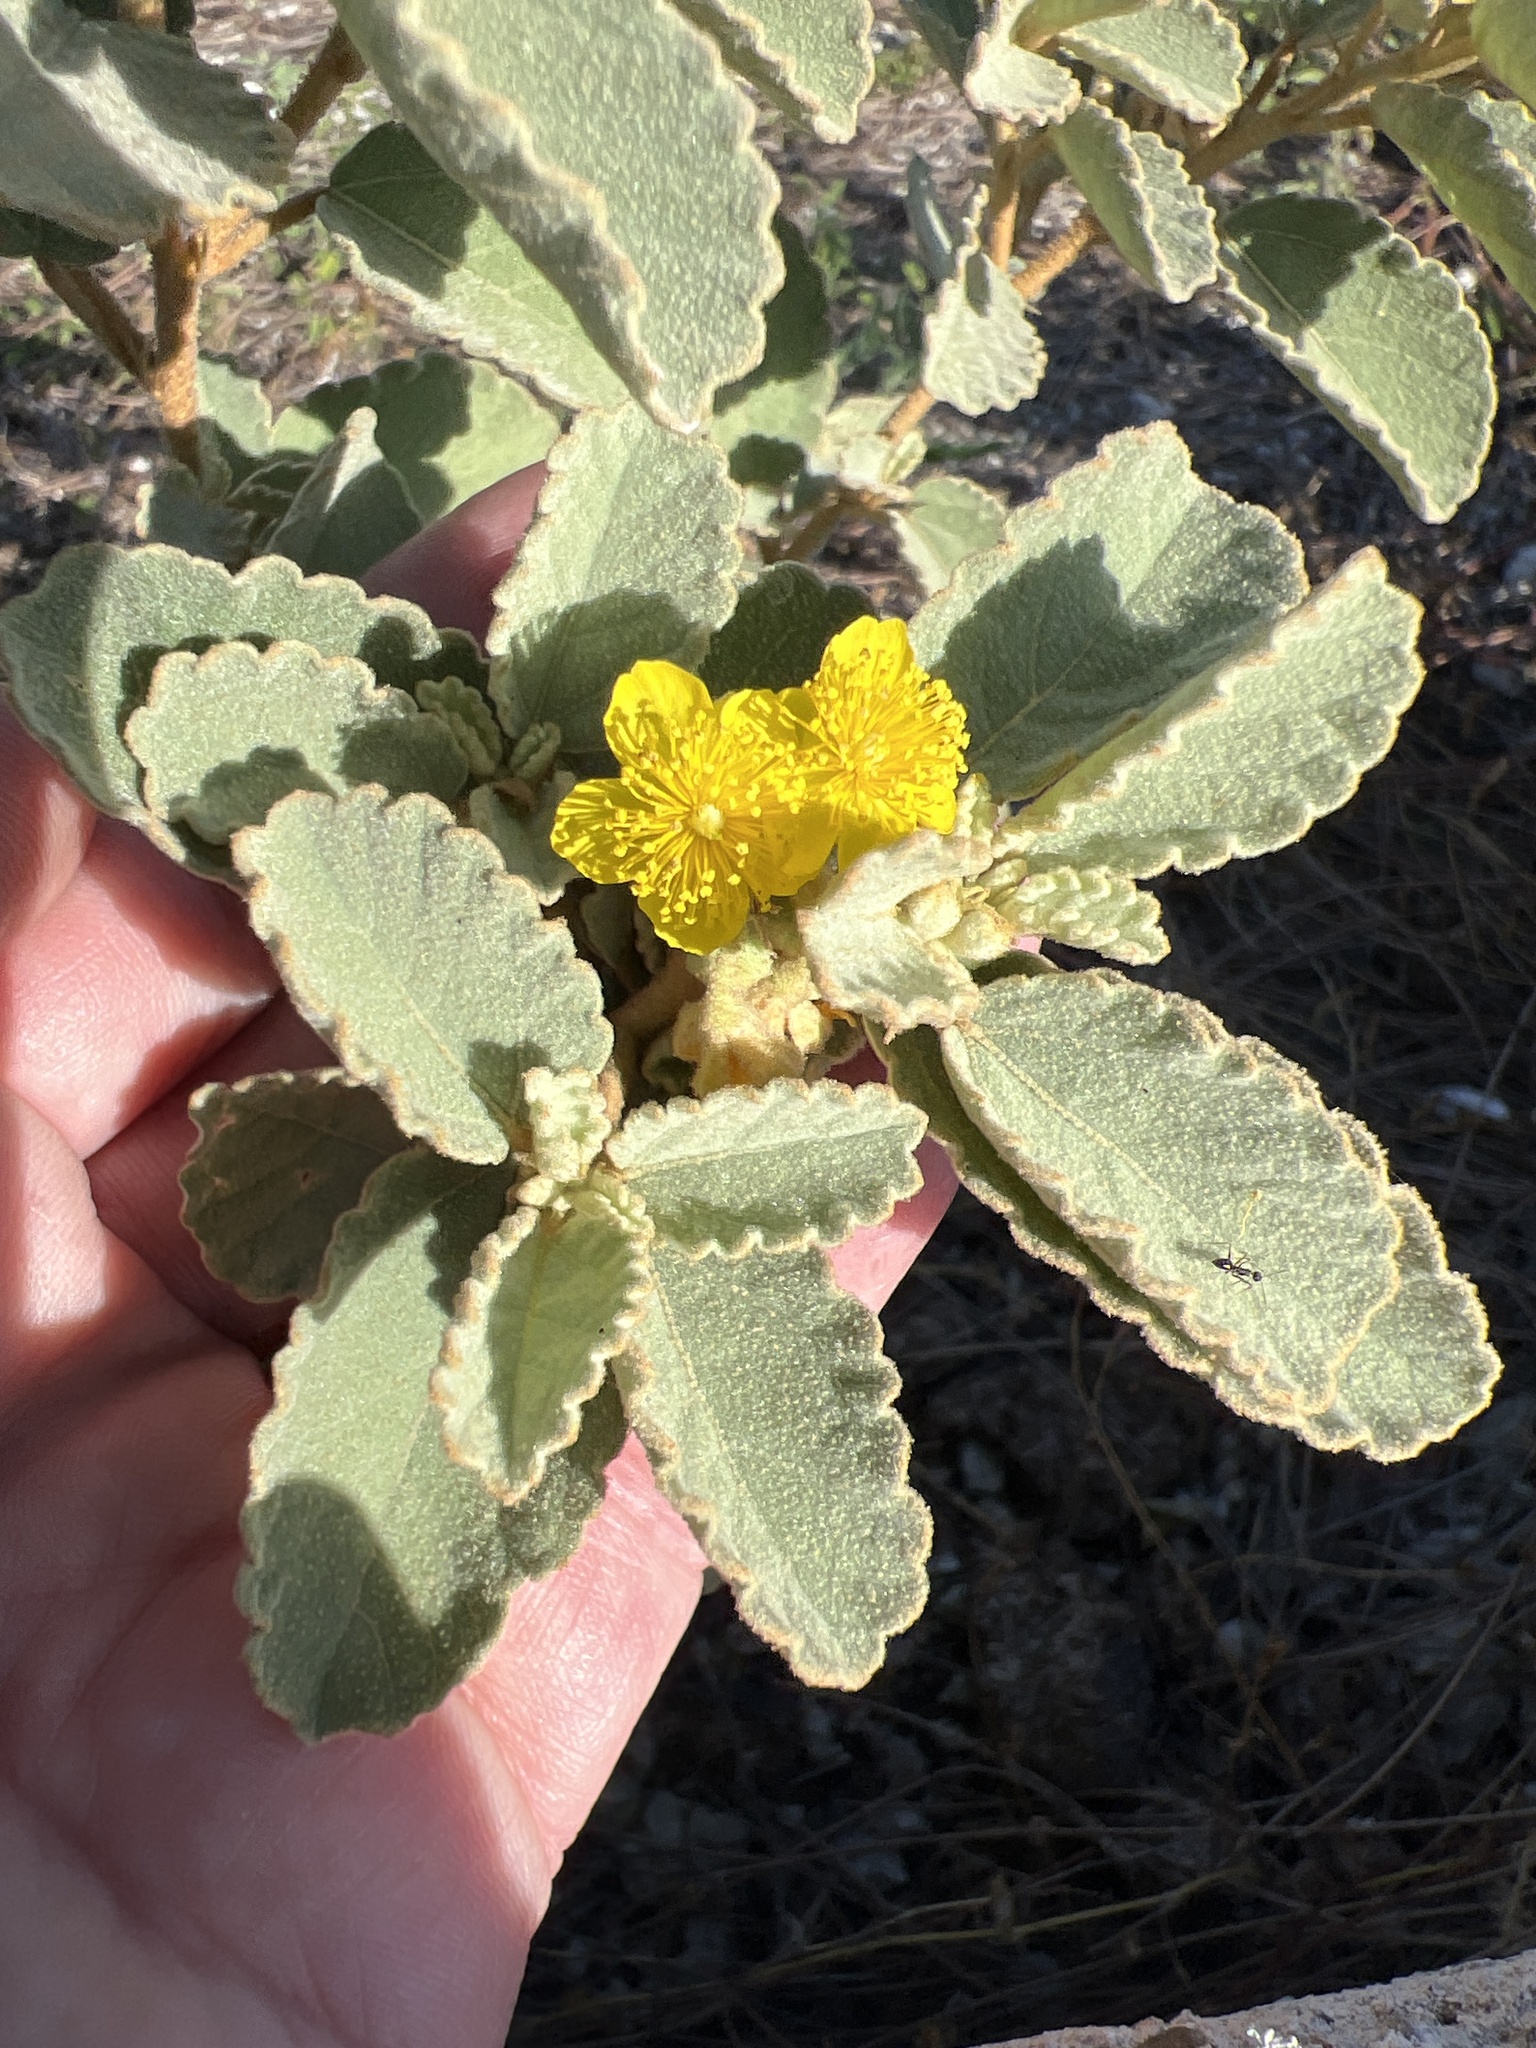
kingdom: Plantae
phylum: Tracheophyta
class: Magnoliopsida
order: Malvales
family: Malvaceae
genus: Corchorus
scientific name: Corchorus hirsutus
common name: Jackswitch
